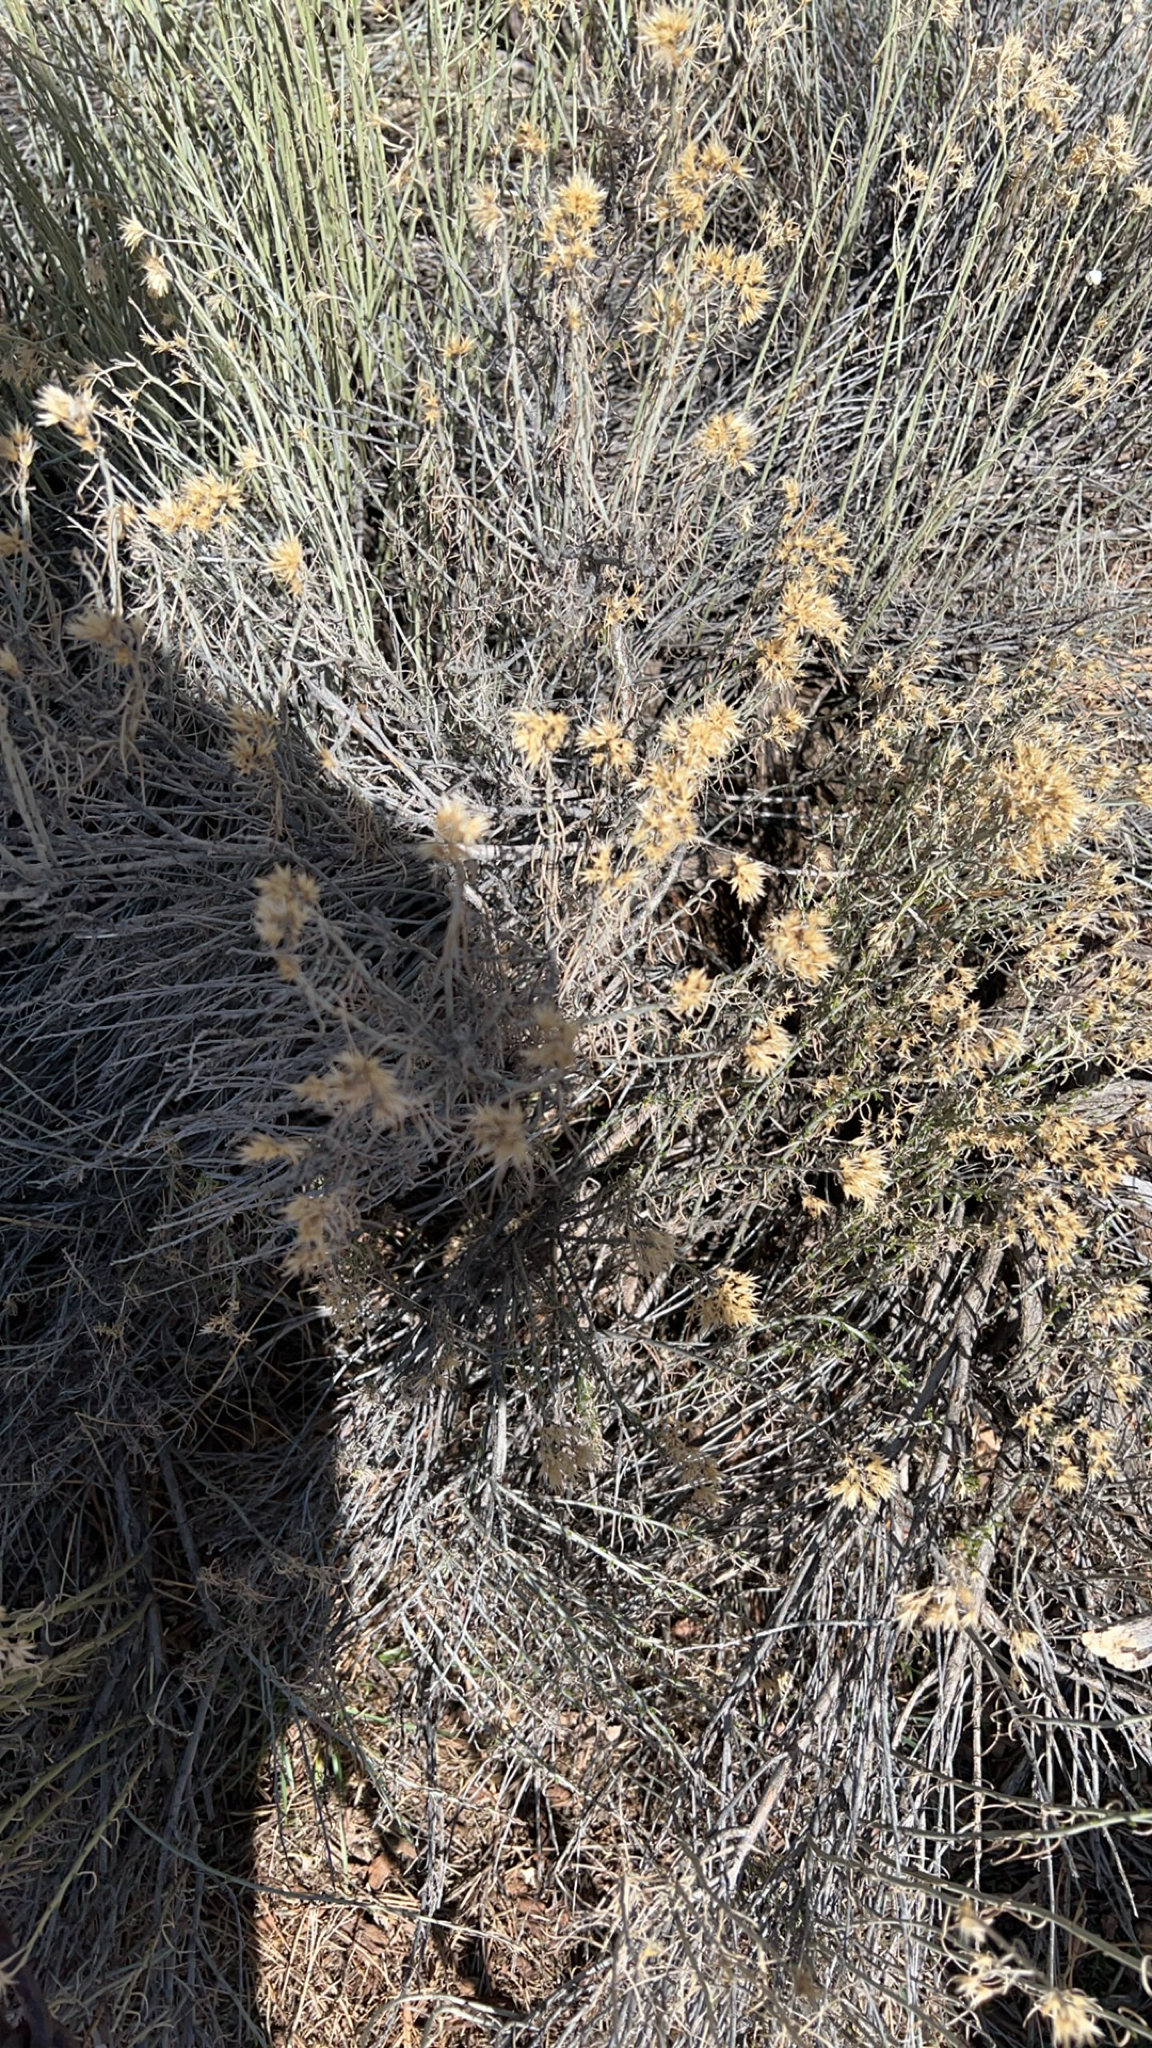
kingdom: Plantae
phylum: Tracheophyta
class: Magnoliopsida
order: Asterales
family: Asteraceae
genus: Ericameria
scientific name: Ericameria nauseosa
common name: Rubber rabbitbrush
